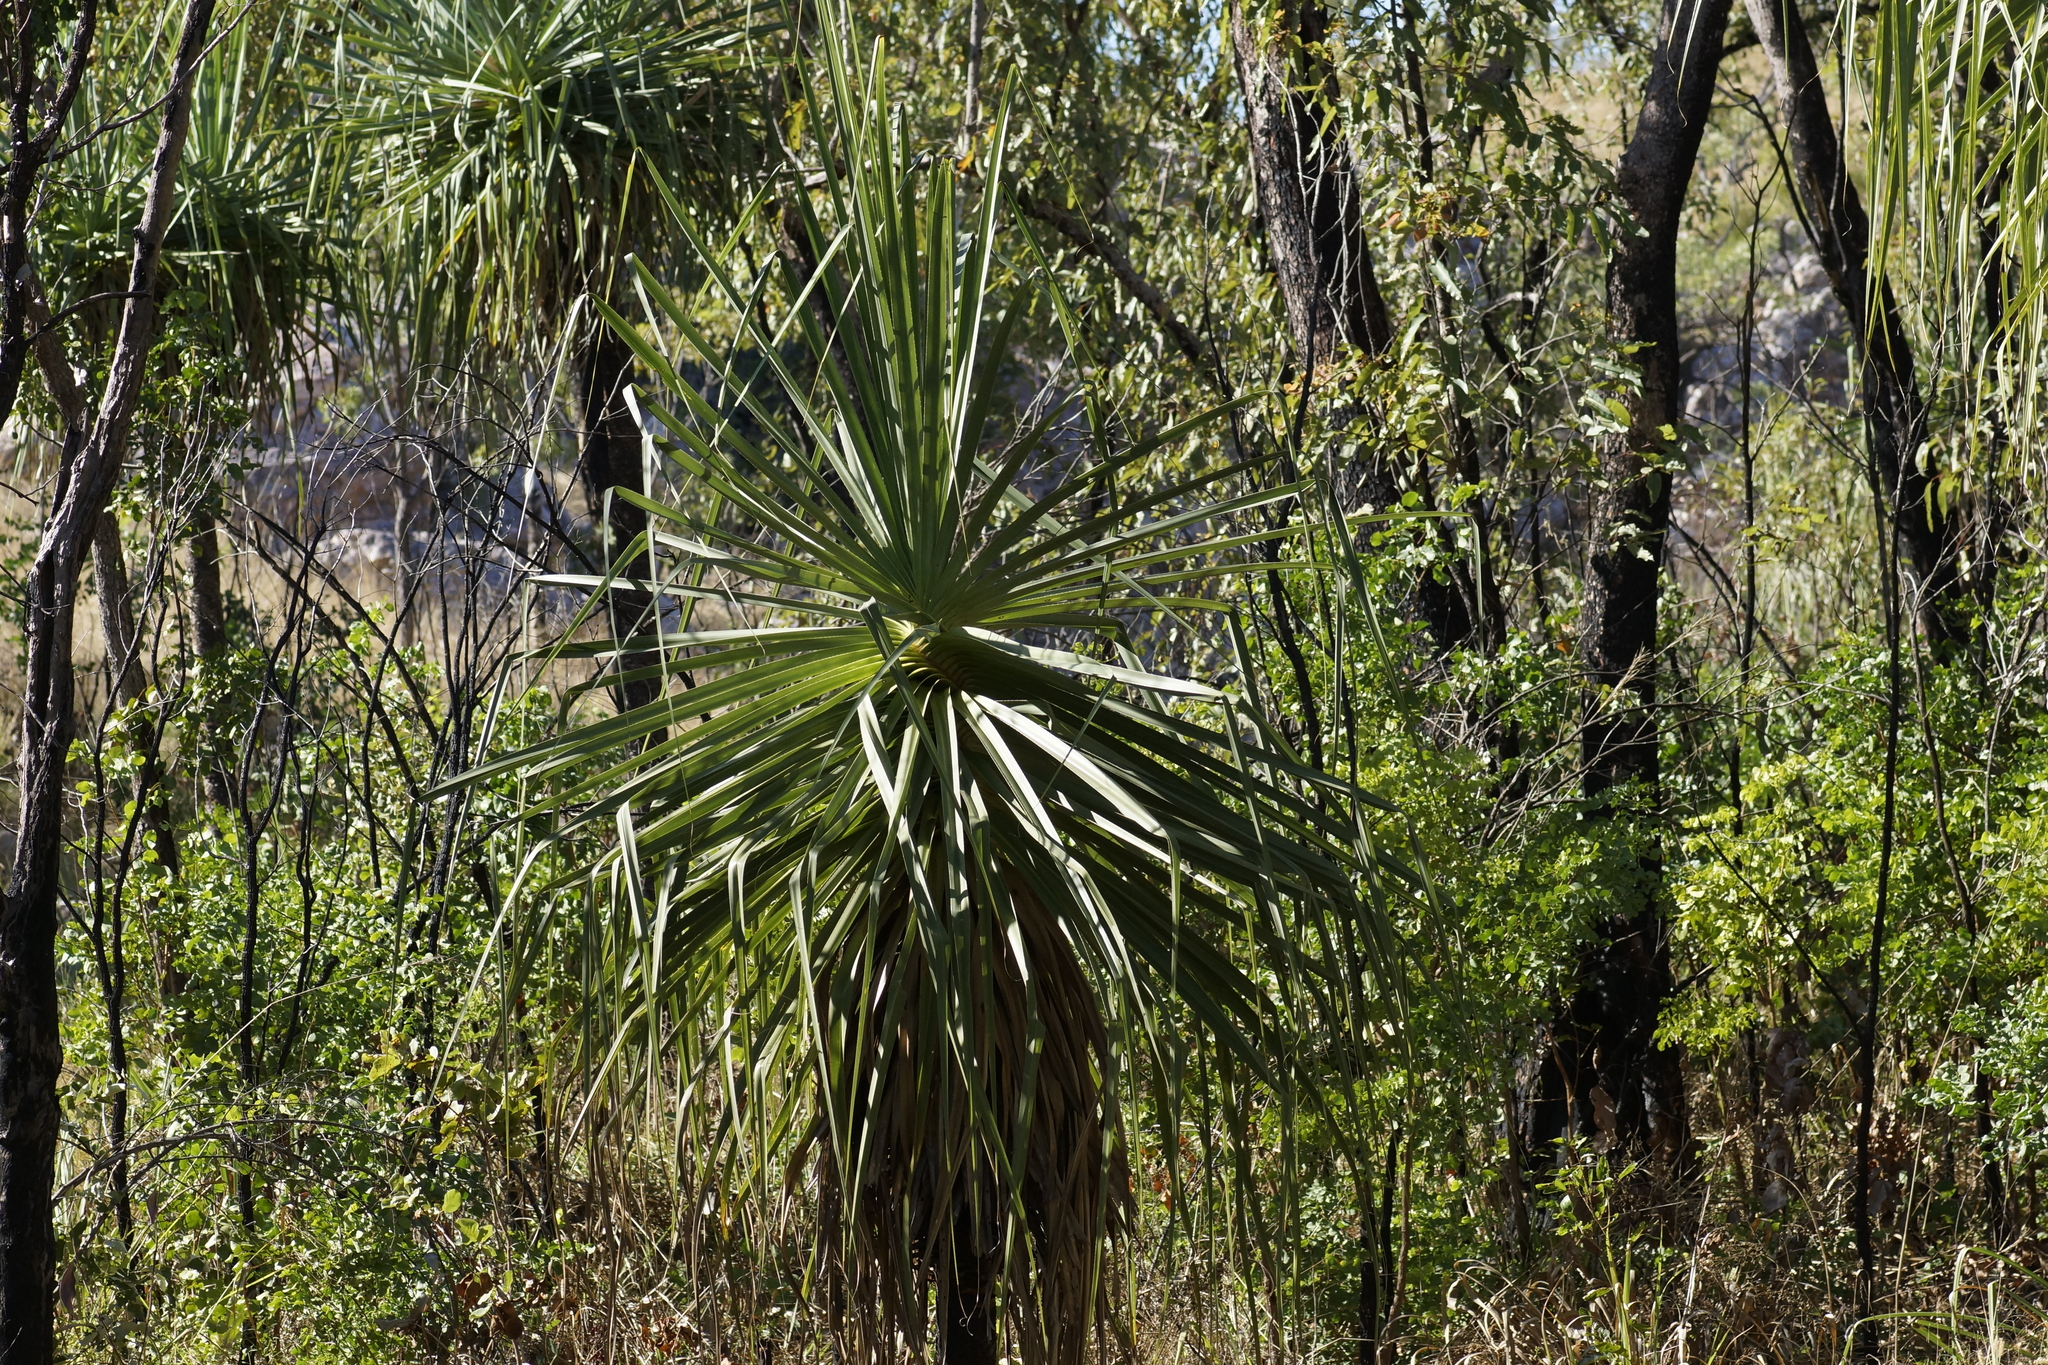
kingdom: Plantae
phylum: Tracheophyta
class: Liliopsida
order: Pandanales
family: Pandanaceae
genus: Pandanus
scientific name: Pandanus spiralis
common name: Screw-pine
